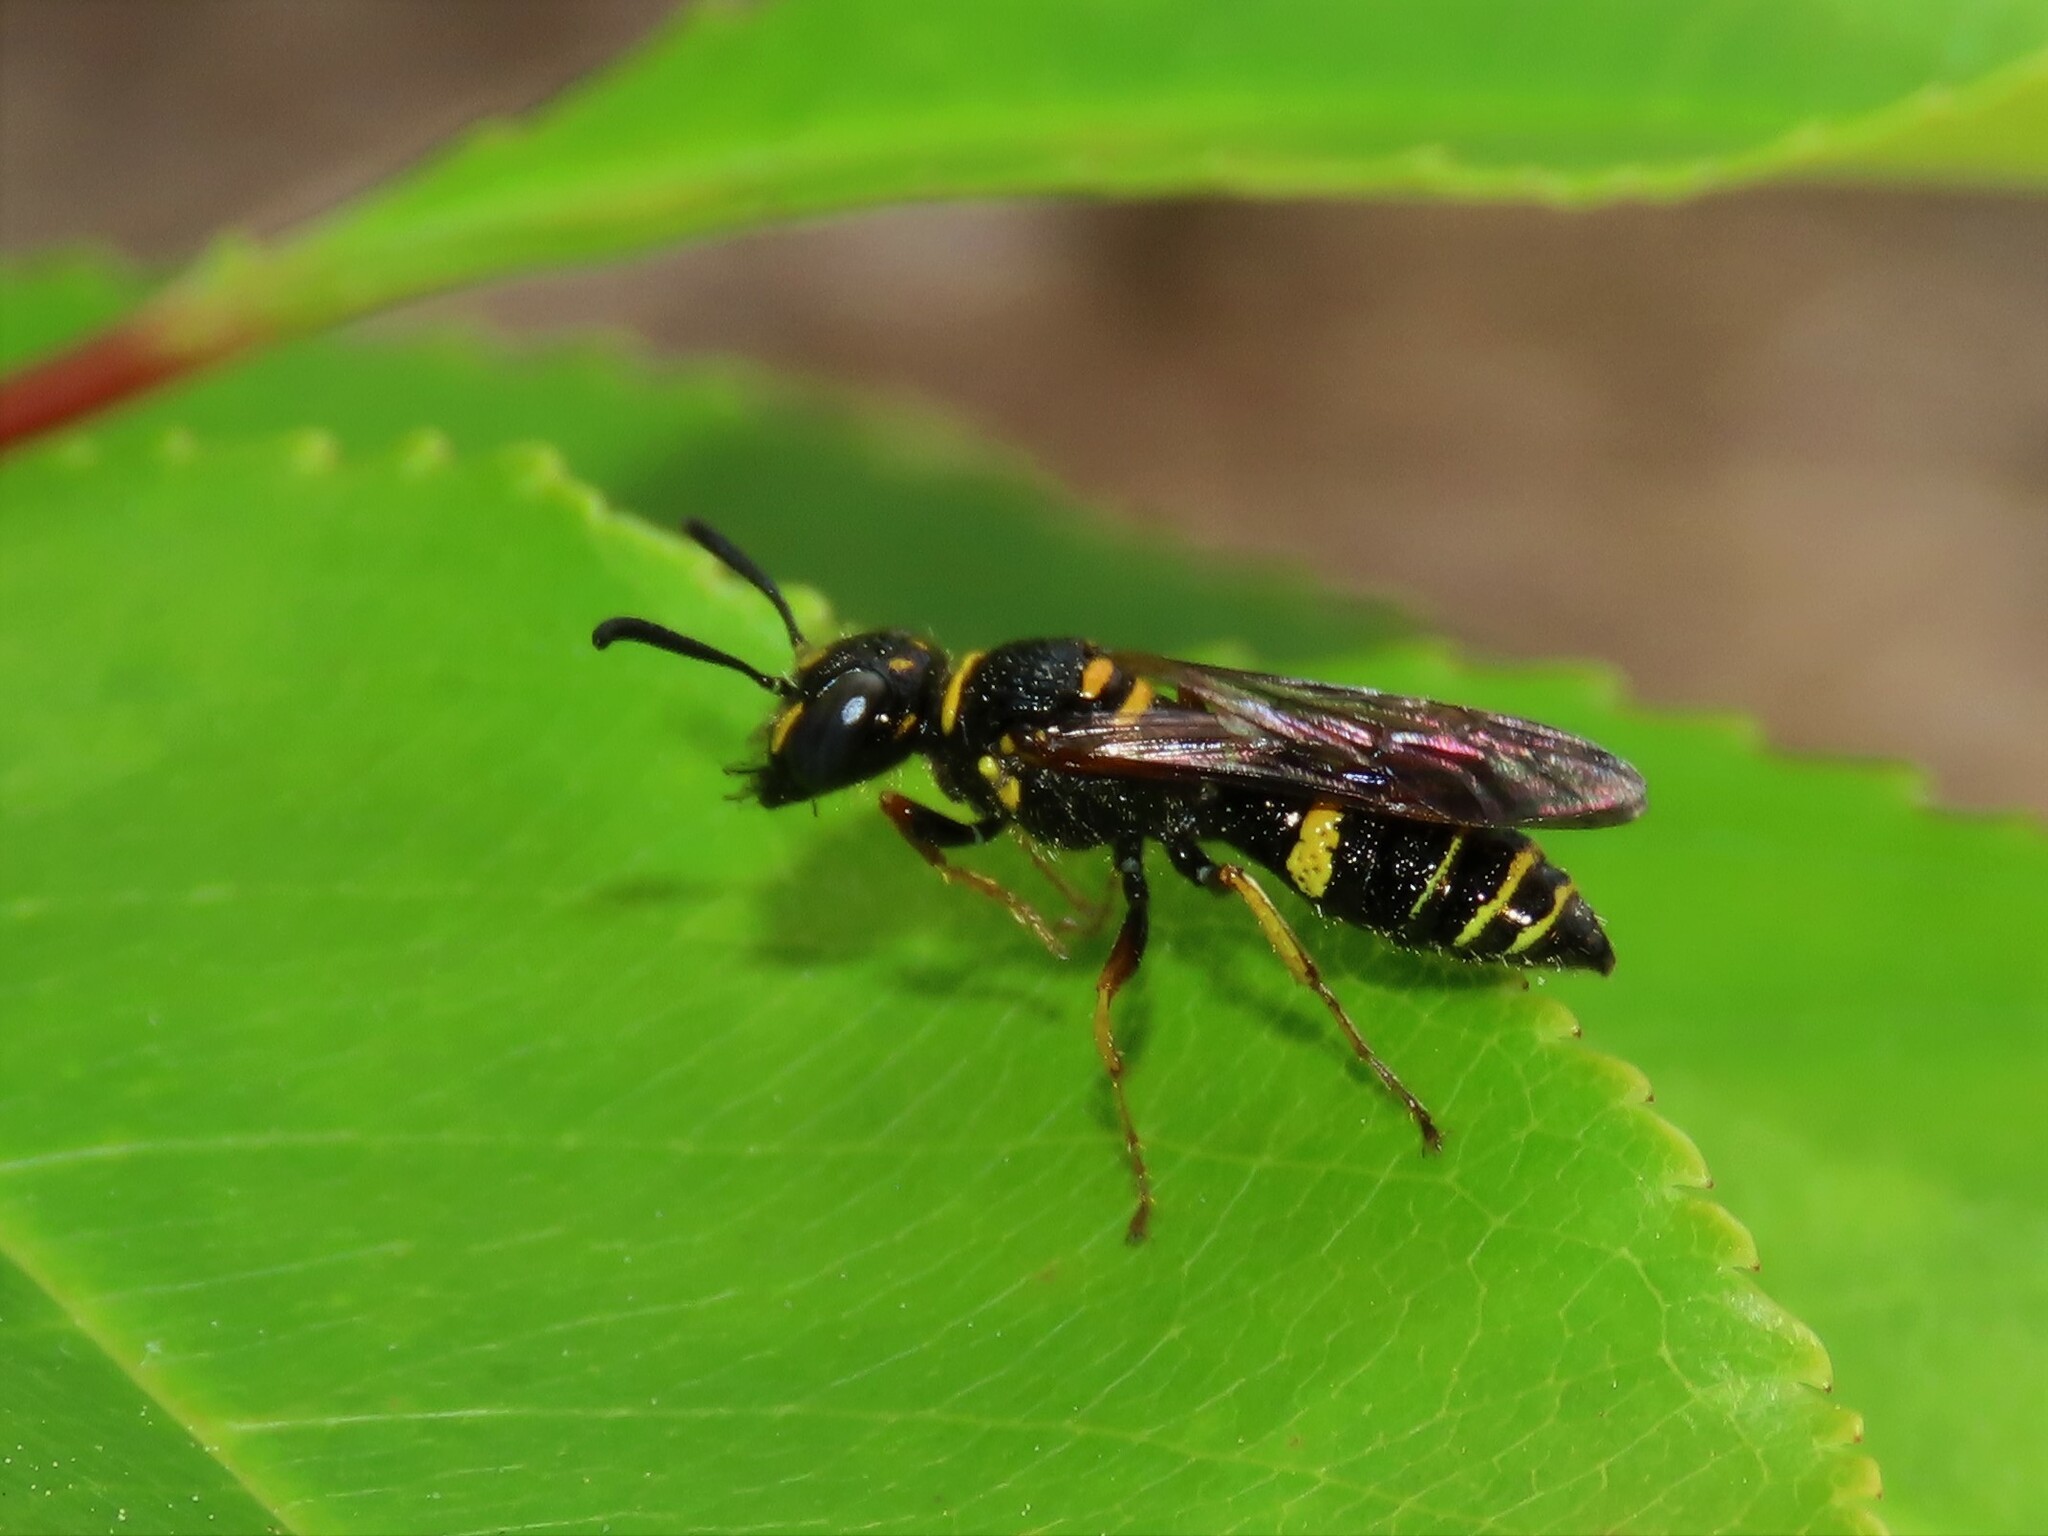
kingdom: Animalia
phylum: Arthropoda
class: Insecta
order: Hymenoptera
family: Crabronidae
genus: Philanthus
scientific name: Philanthus gibbosus
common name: Humped beewolf
